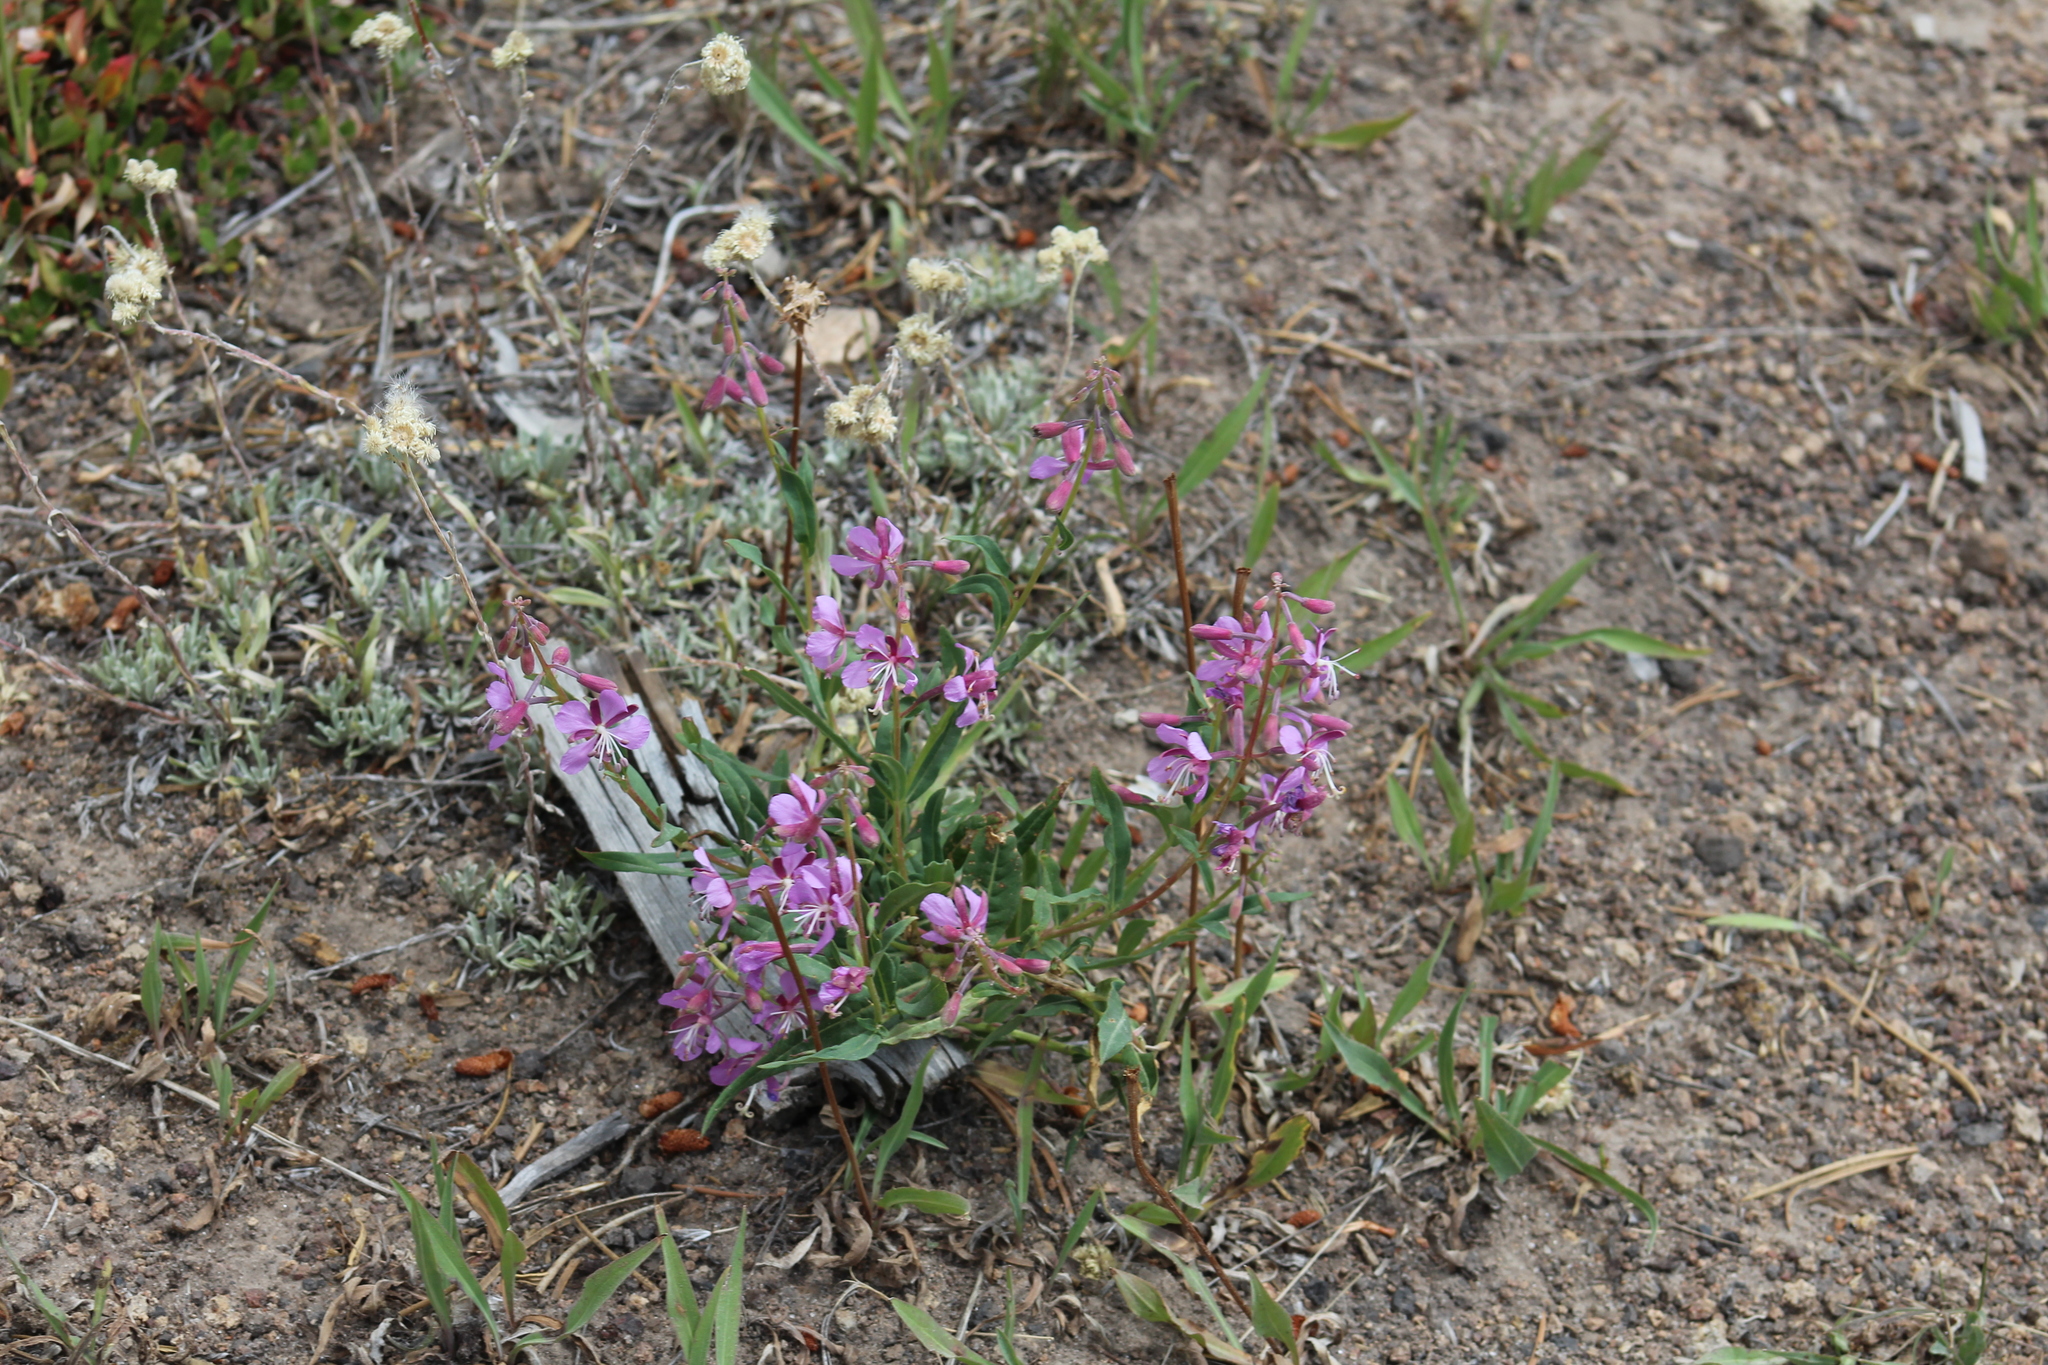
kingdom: Plantae
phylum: Tracheophyta
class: Magnoliopsida
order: Myrtales
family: Onagraceae
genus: Chamaenerion
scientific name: Chamaenerion angustifolium
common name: Fireweed
